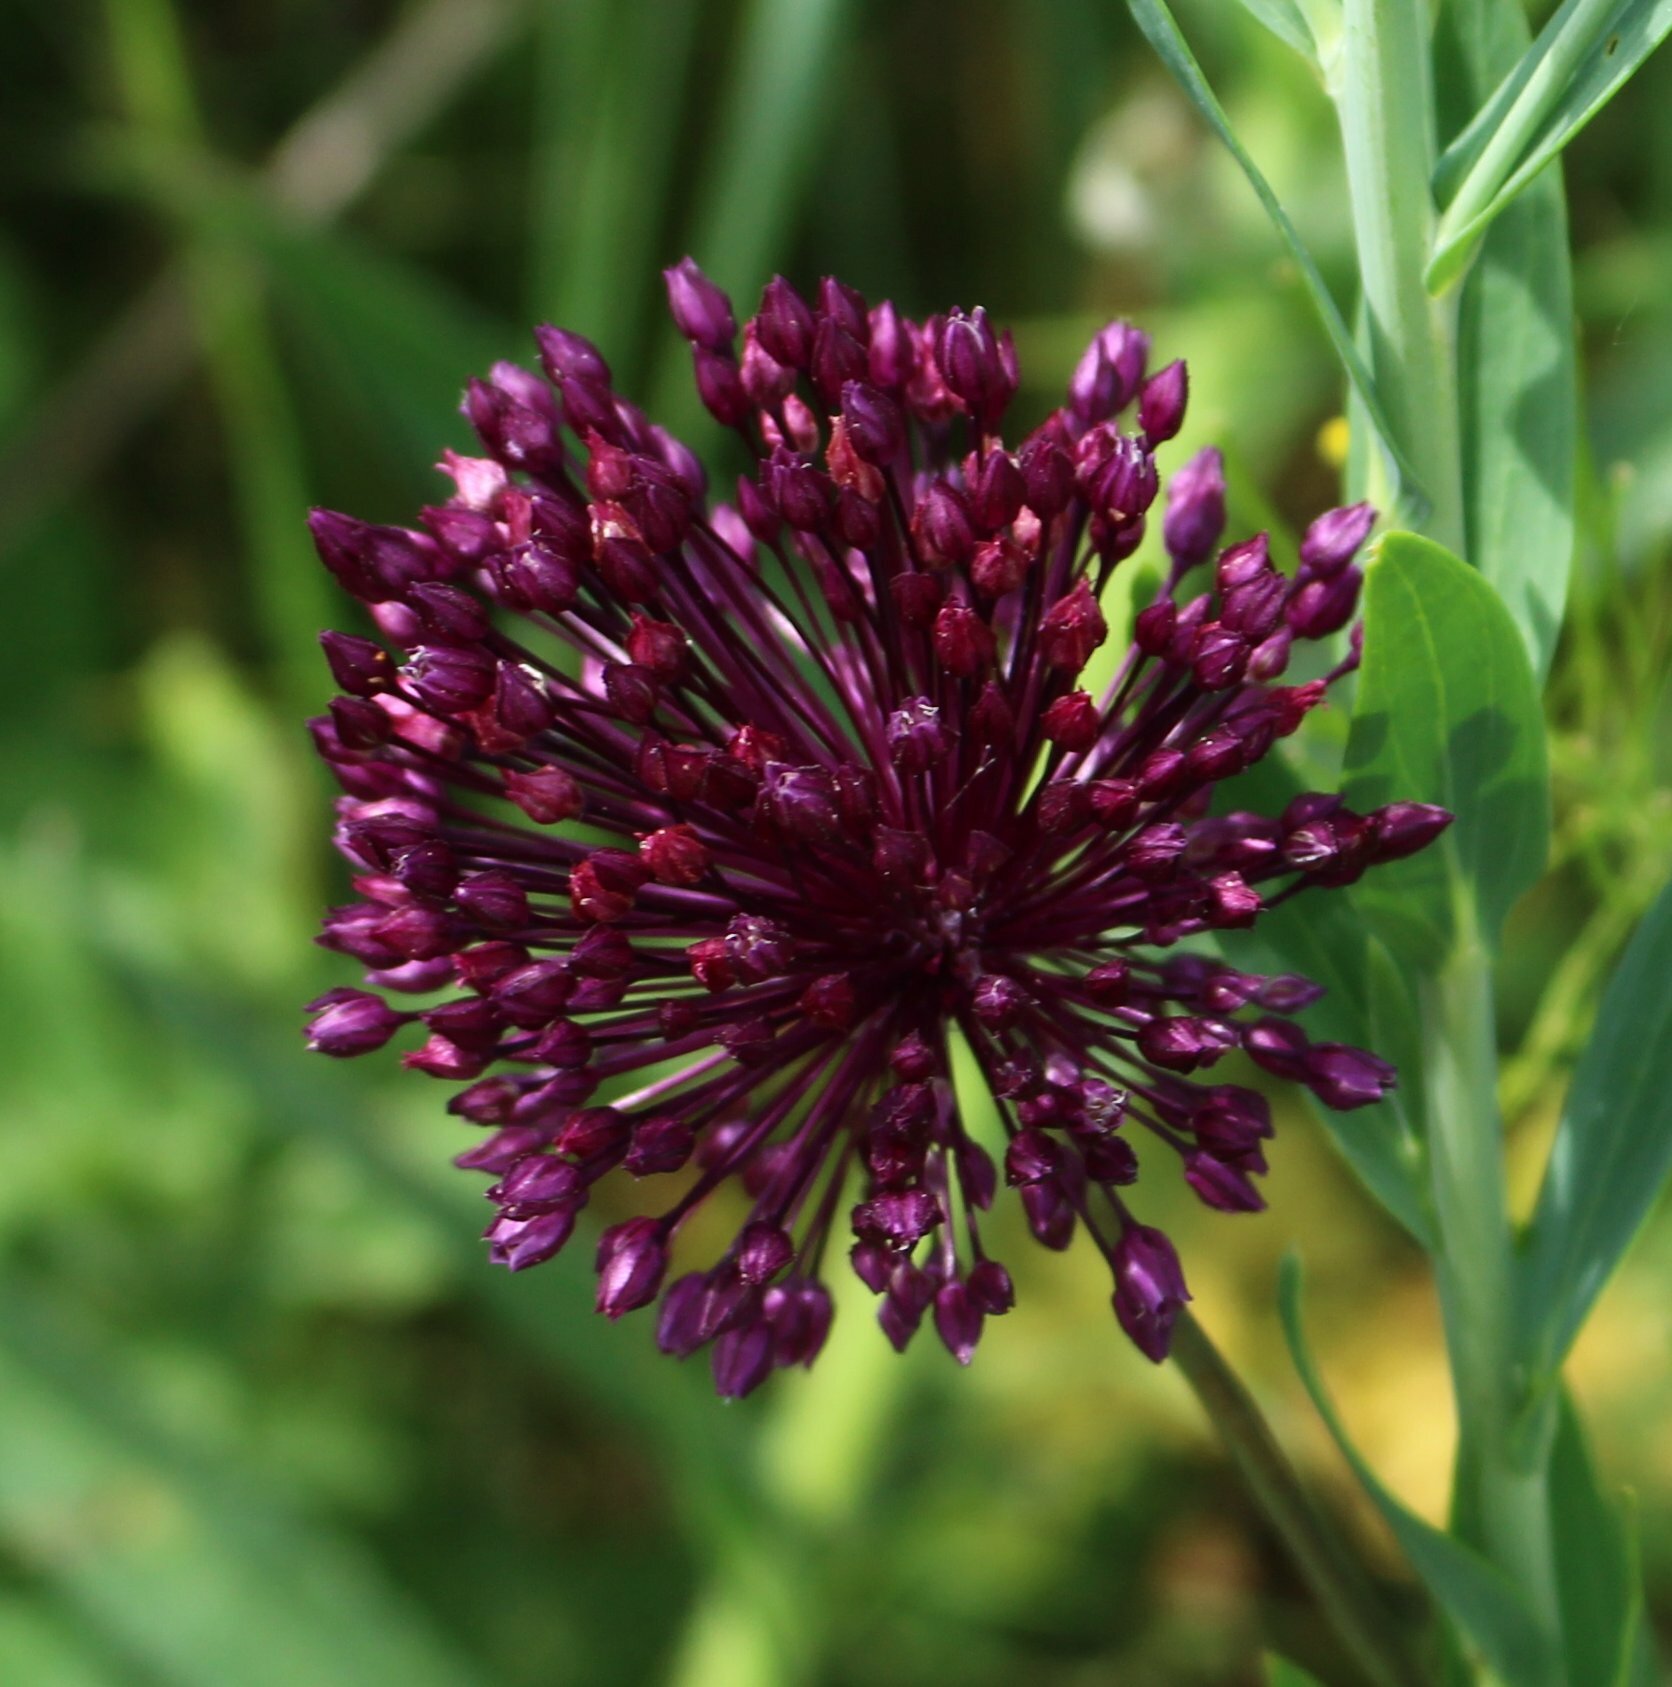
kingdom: Plantae
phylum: Tracheophyta
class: Liliopsida
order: Asparagales
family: Amaryllidaceae
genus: Allium
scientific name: Allium rotundum
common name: Sand leek
